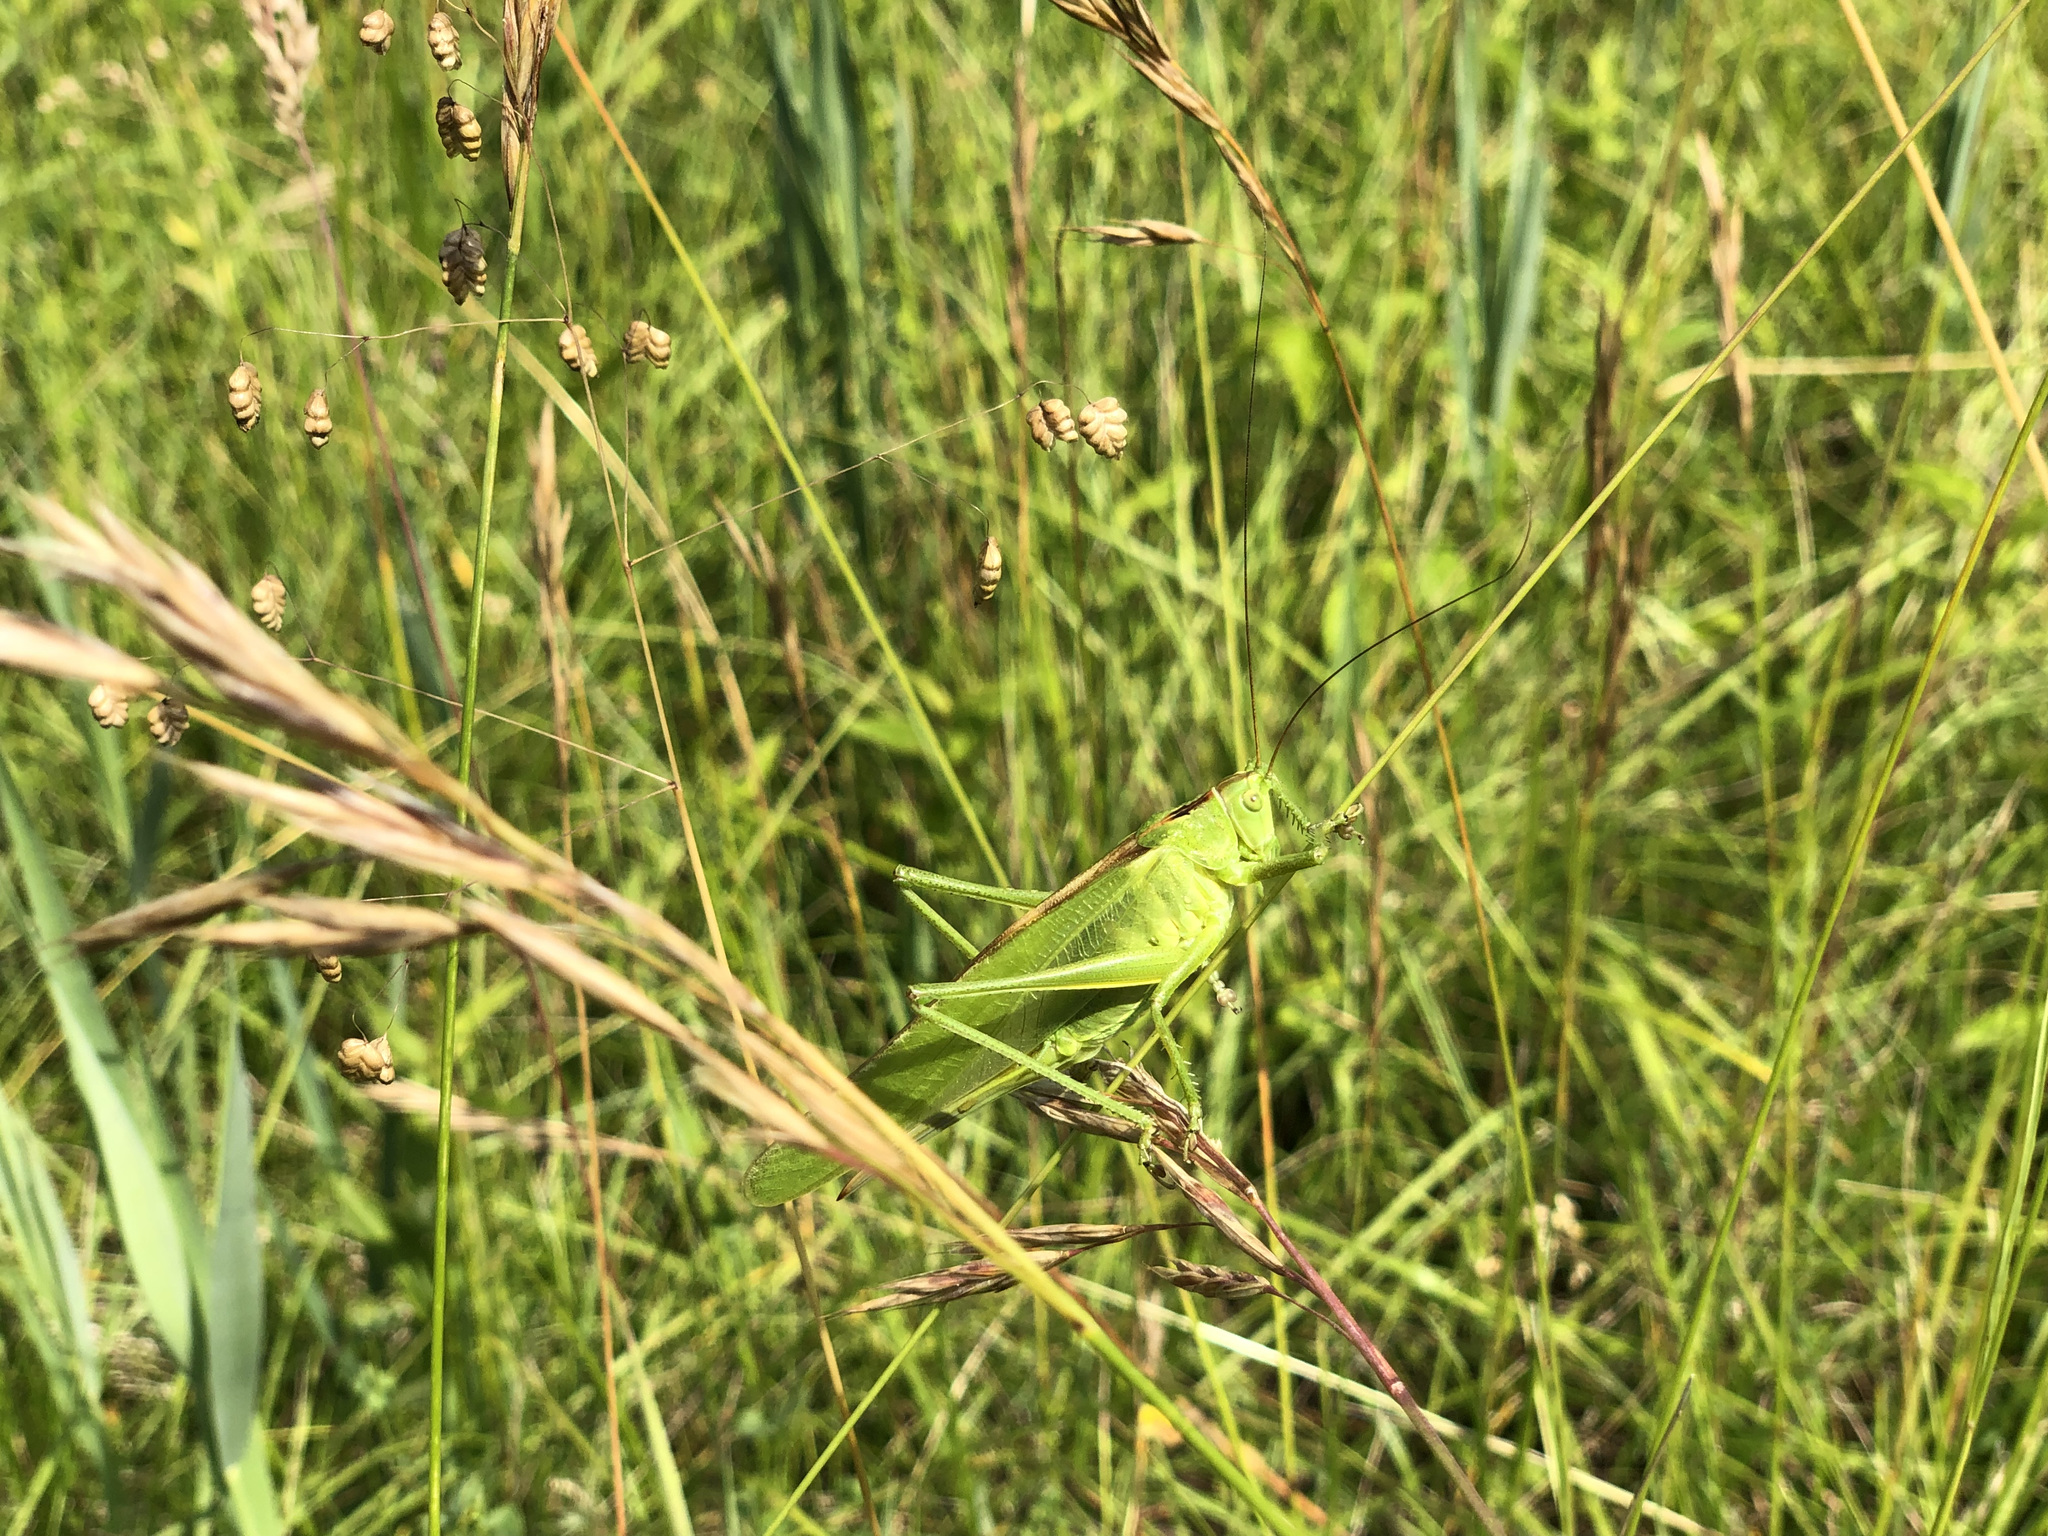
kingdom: Animalia
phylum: Arthropoda
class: Insecta
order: Orthoptera
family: Tettigoniidae
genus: Tettigonia
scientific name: Tettigonia viridissima
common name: Great green bush-cricket
